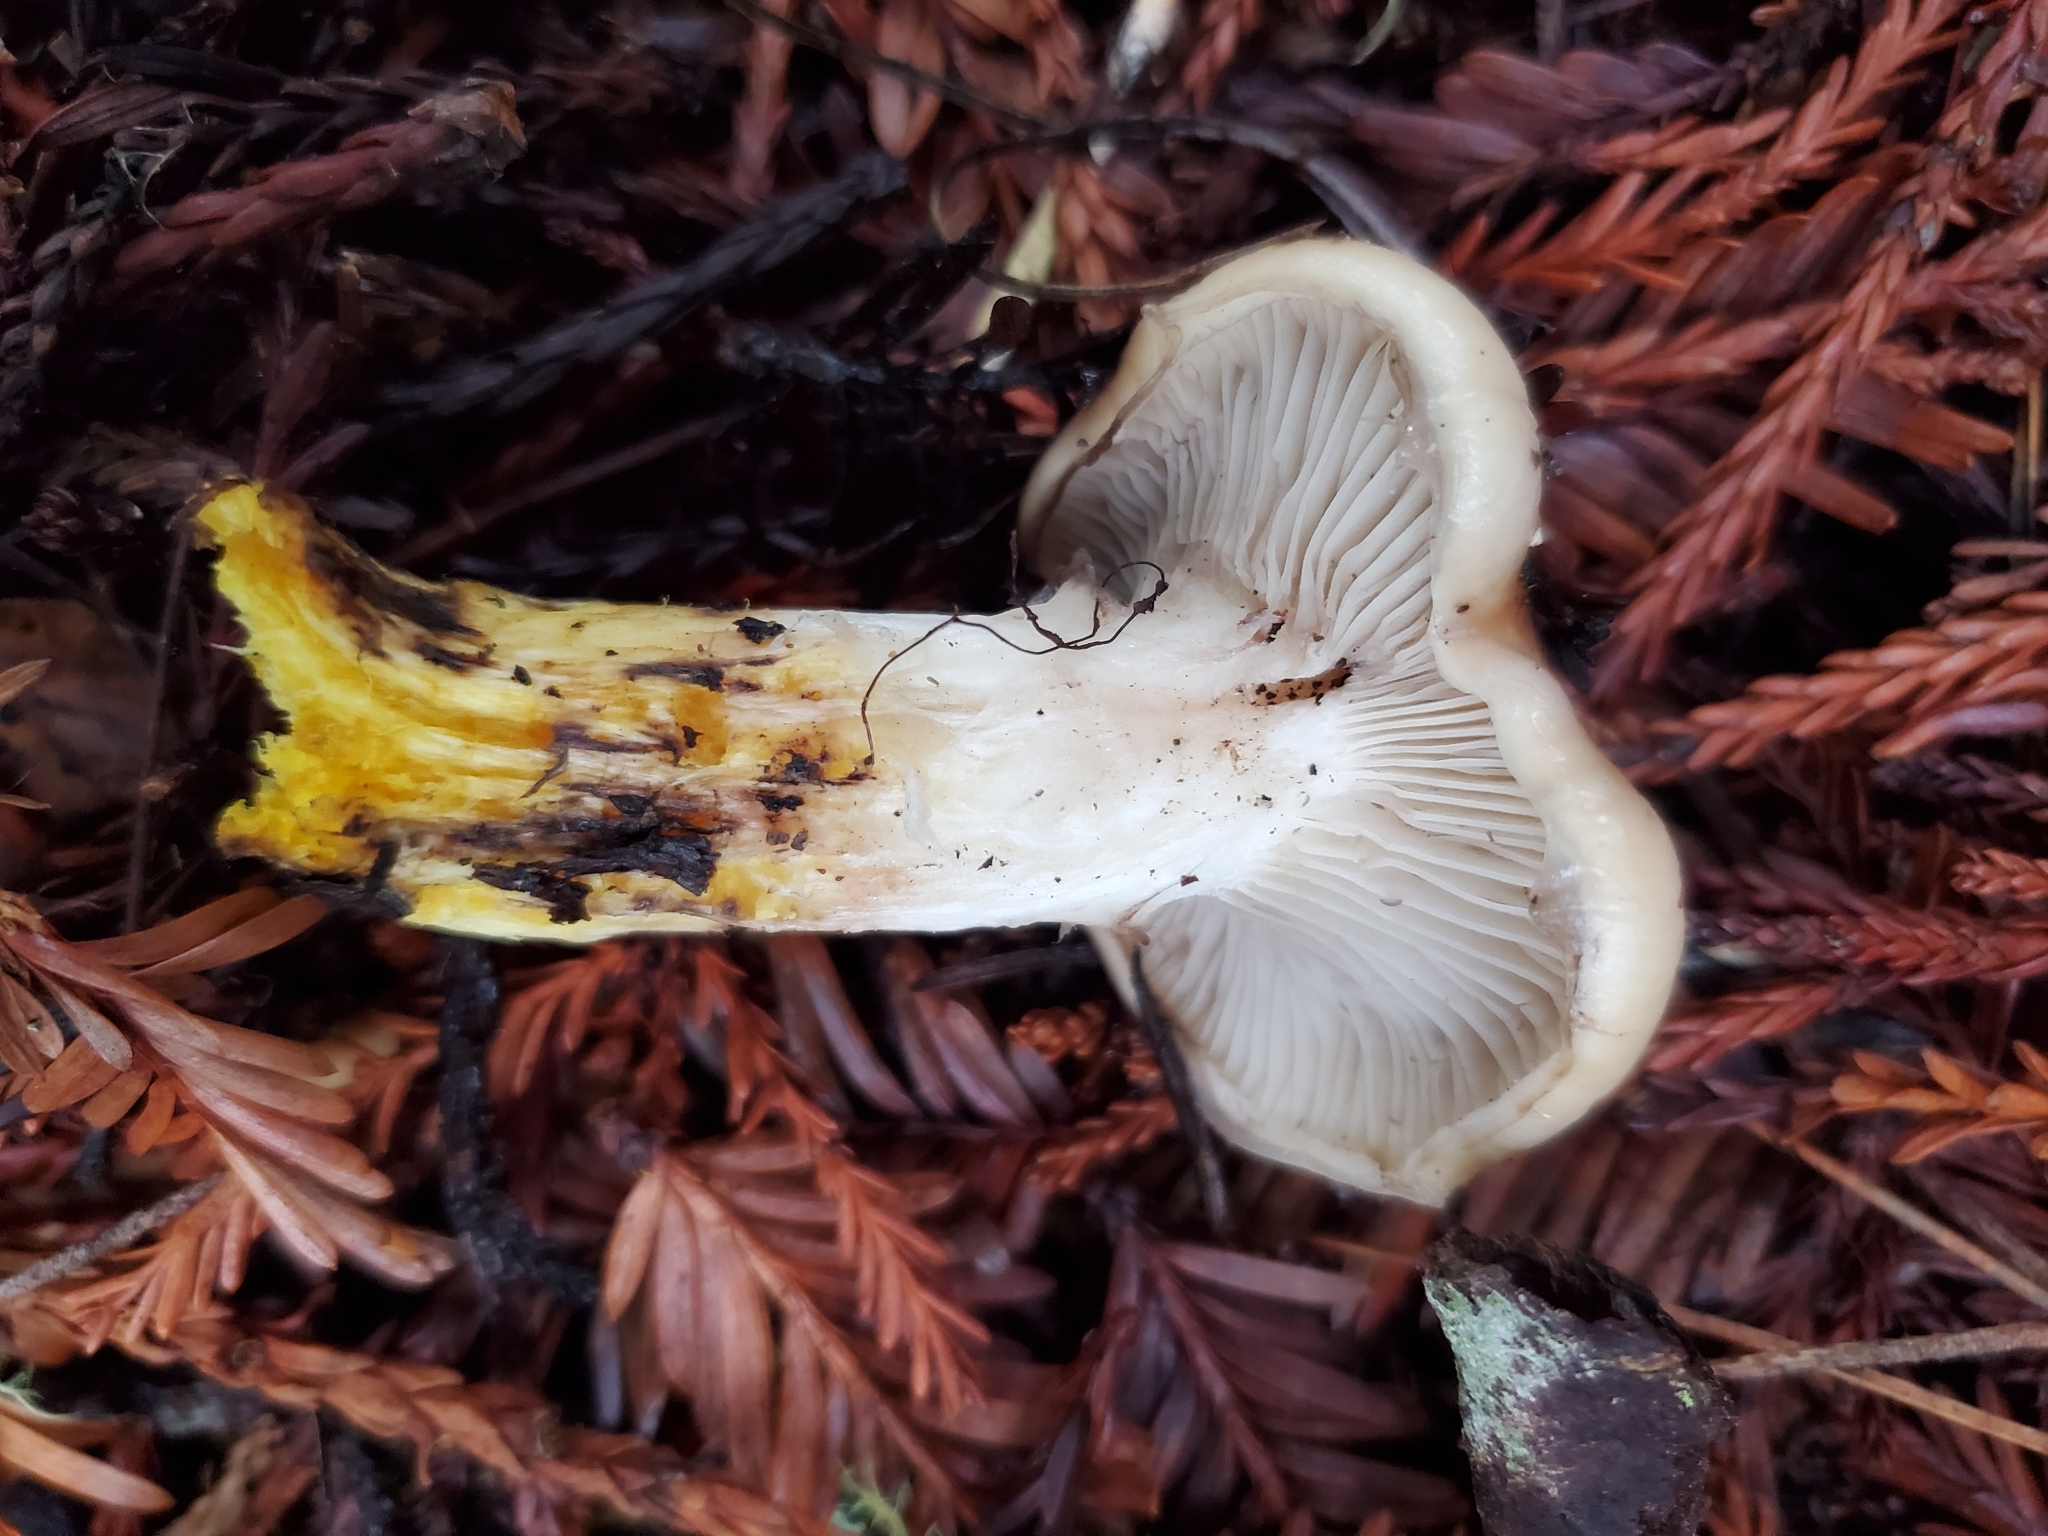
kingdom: Fungi
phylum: Basidiomycota
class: Agaricomycetes
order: Boletales
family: Gomphidiaceae
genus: Gomphidius
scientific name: Gomphidius oregonensis
